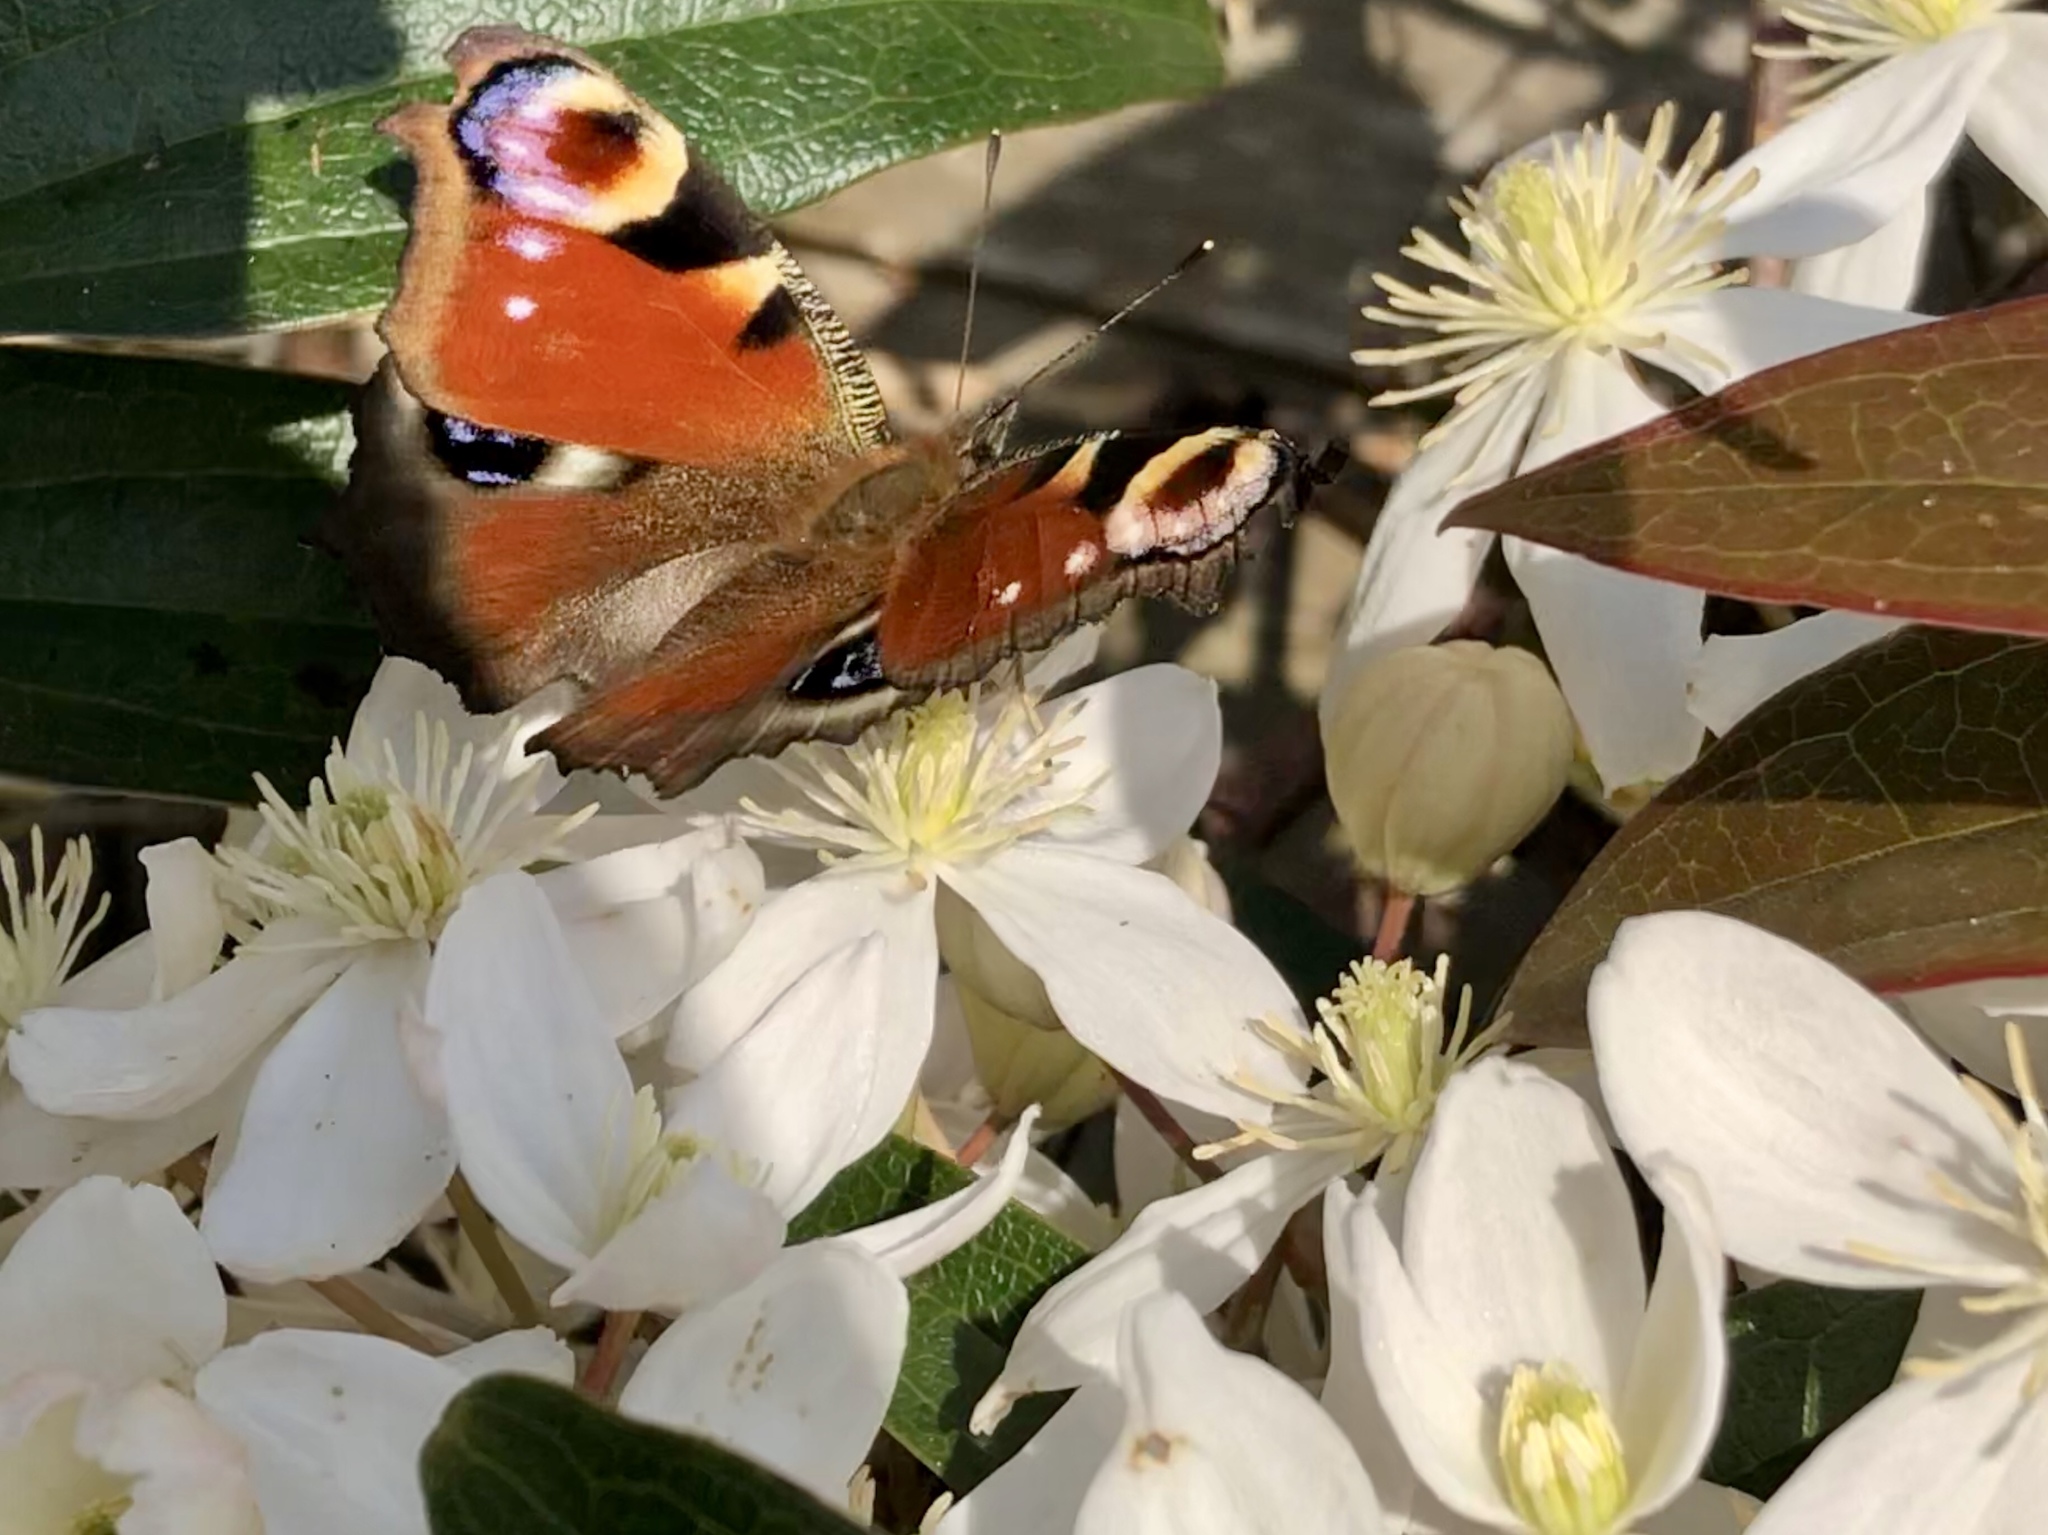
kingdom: Animalia
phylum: Arthropoda
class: Insecta
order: Lepidoptera
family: Nymphalidae
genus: Aglais
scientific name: Aglais io
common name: Peacock
